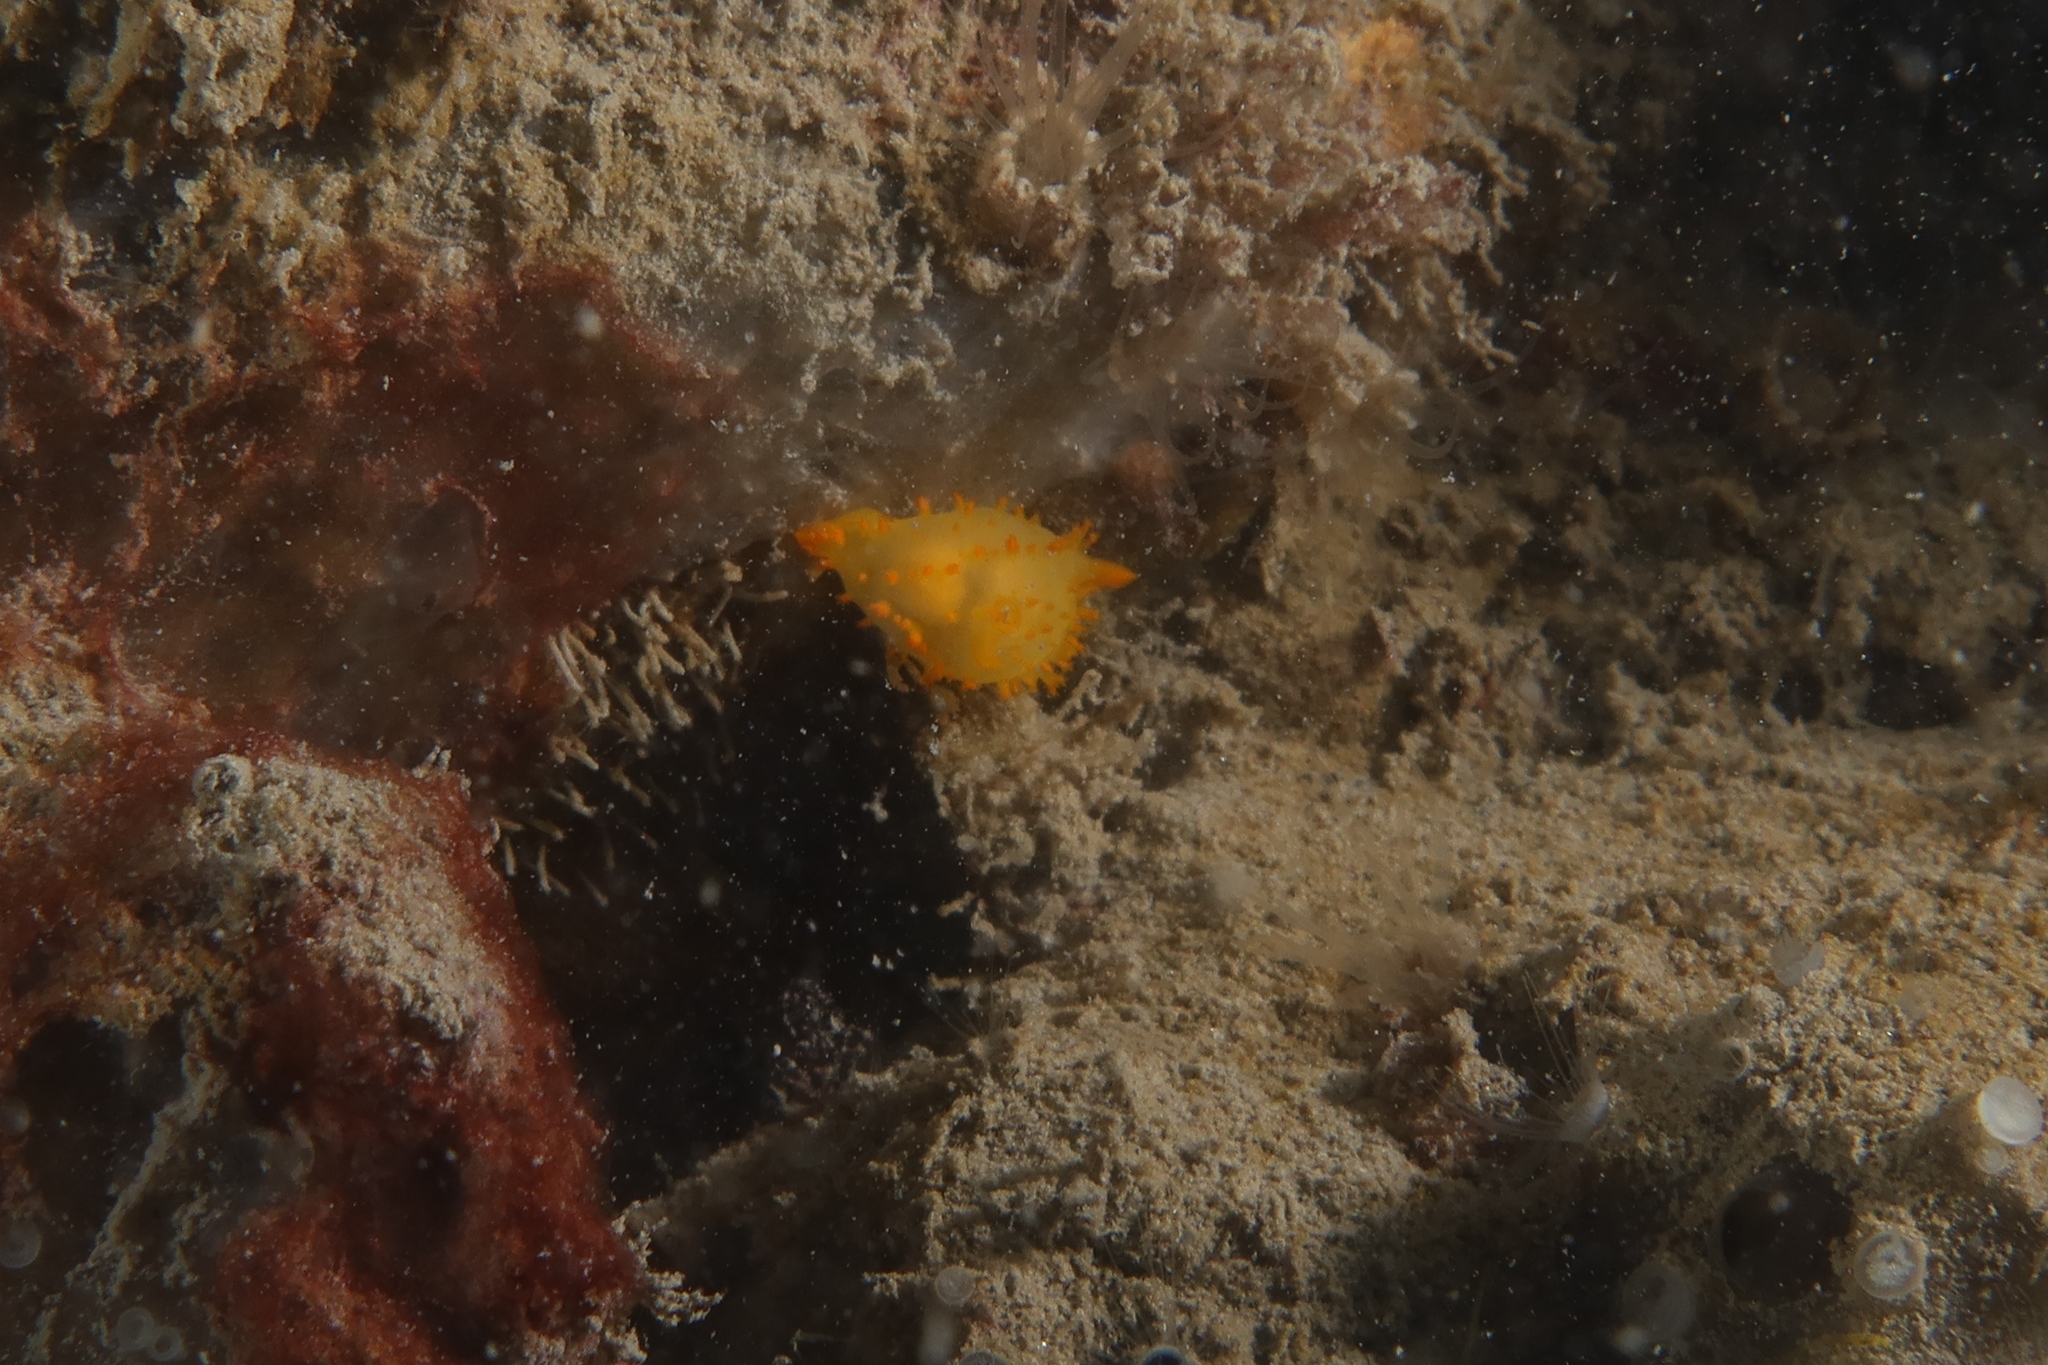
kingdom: Animalia
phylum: Mollusca
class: Gastropoda
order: Nudibranchia
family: Polyceridae
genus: Crimora
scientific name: Crimora papillata
